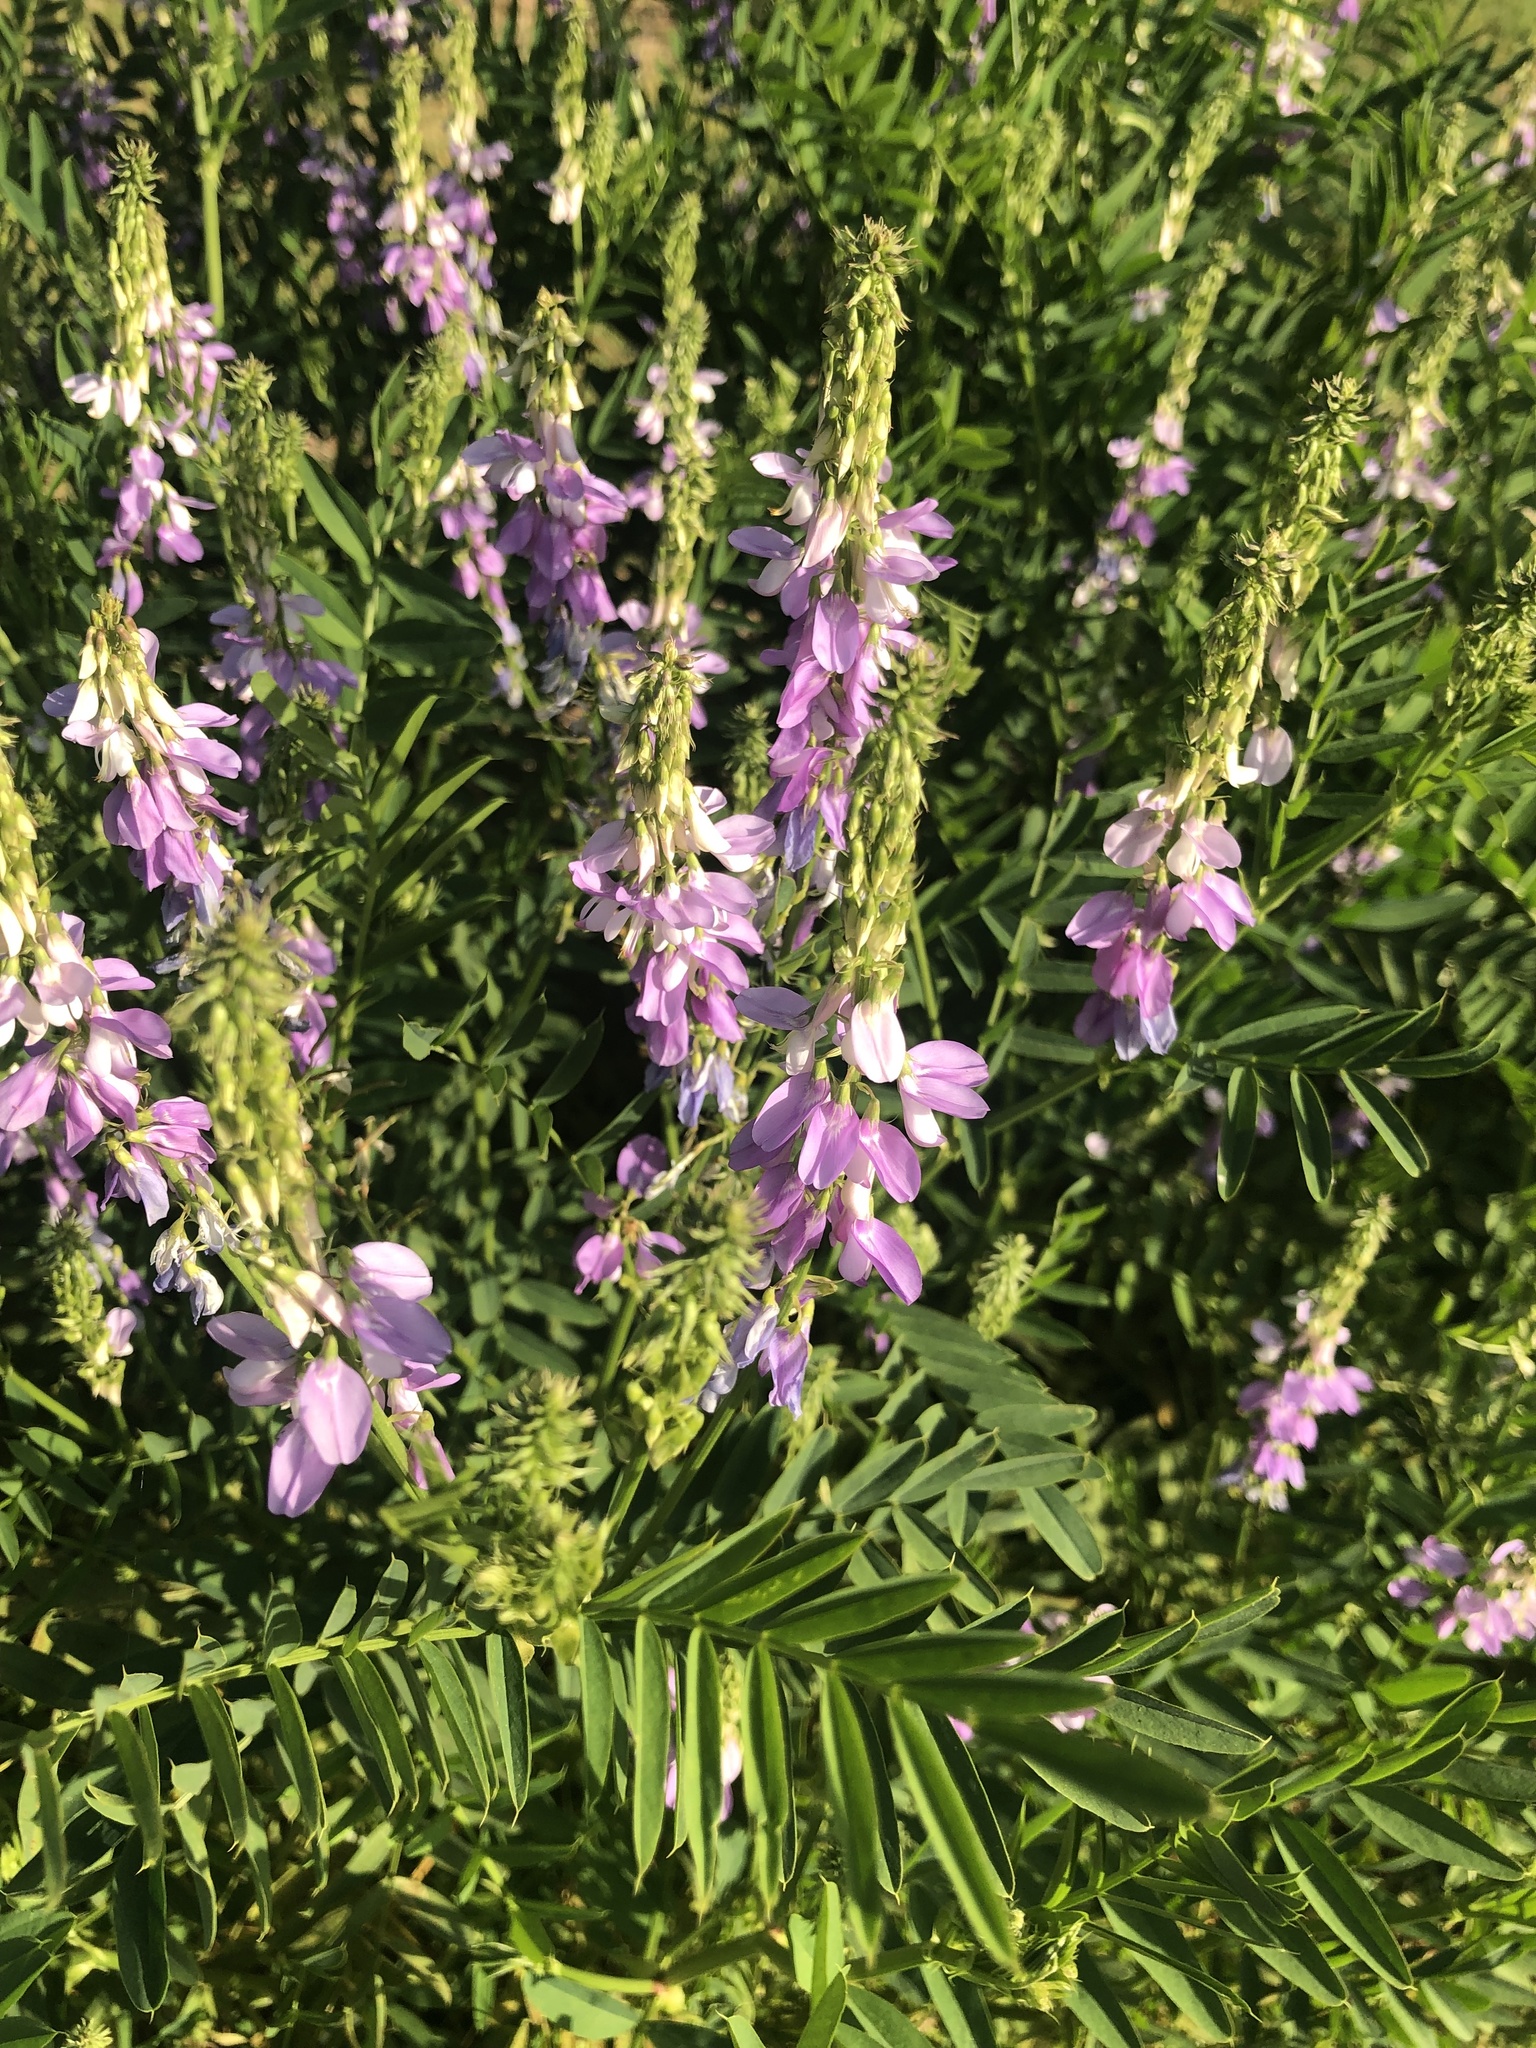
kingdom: Plantae
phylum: Tracheophyta
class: Magnoliopsida
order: Fabales
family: Fabaceae
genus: Galega
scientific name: Galega officinalis
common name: Goat's-rue
